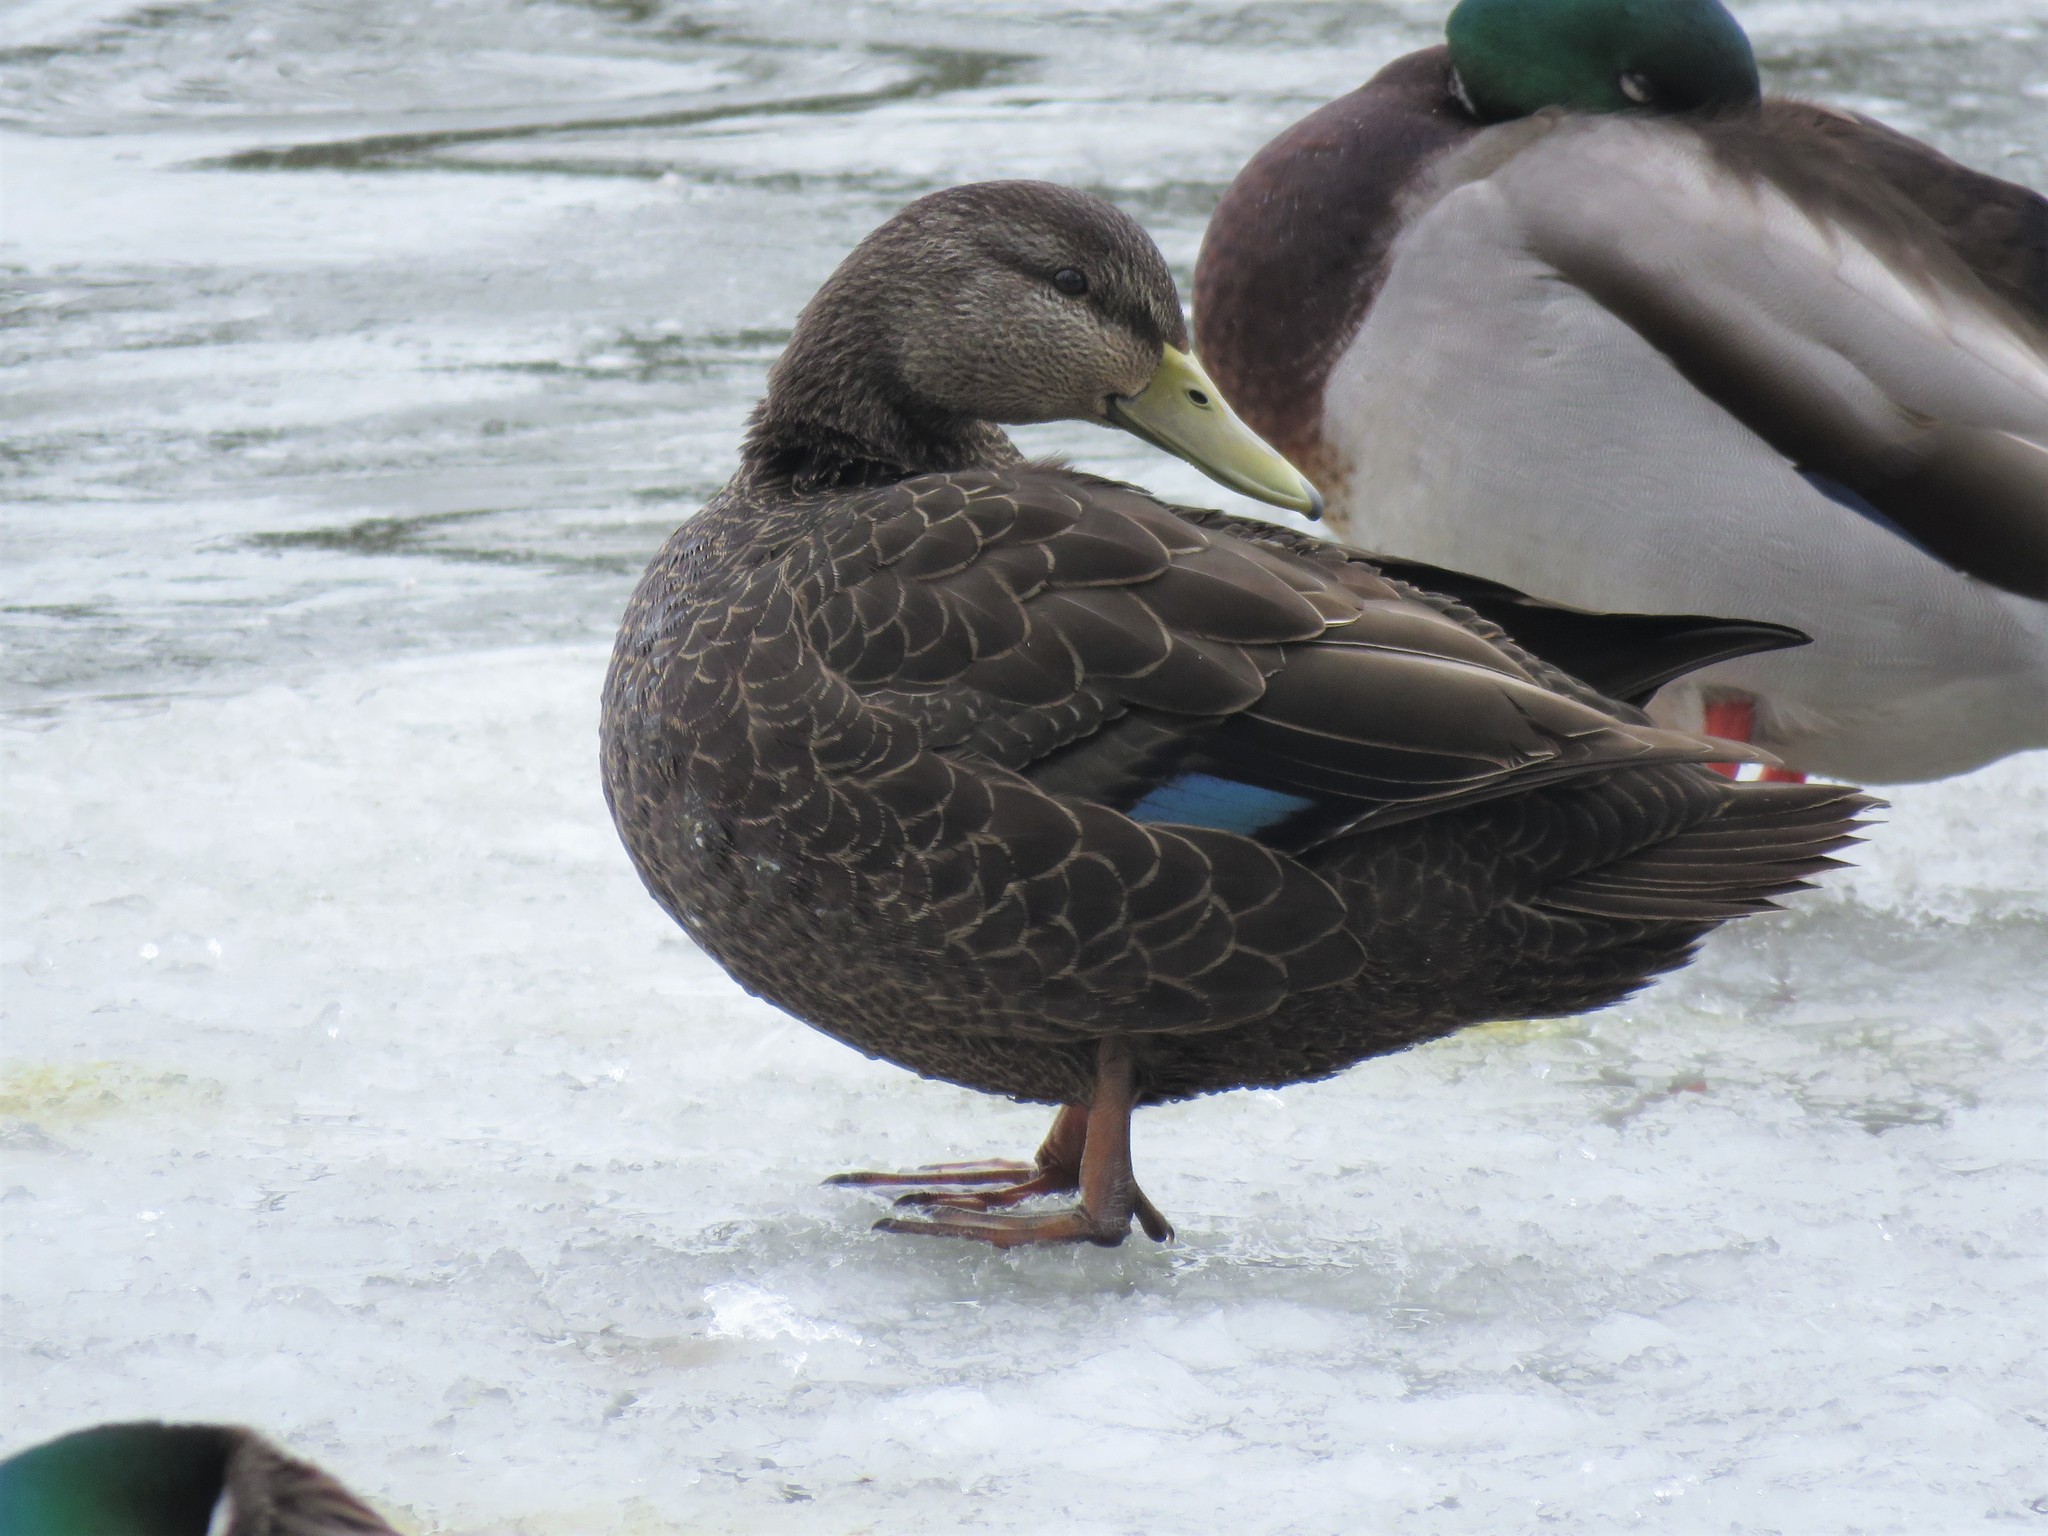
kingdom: Animalia
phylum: Chordata
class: Aves
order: Anseriformes
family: Anatidae
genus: Anas
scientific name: Anas rubripes
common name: American black duck
